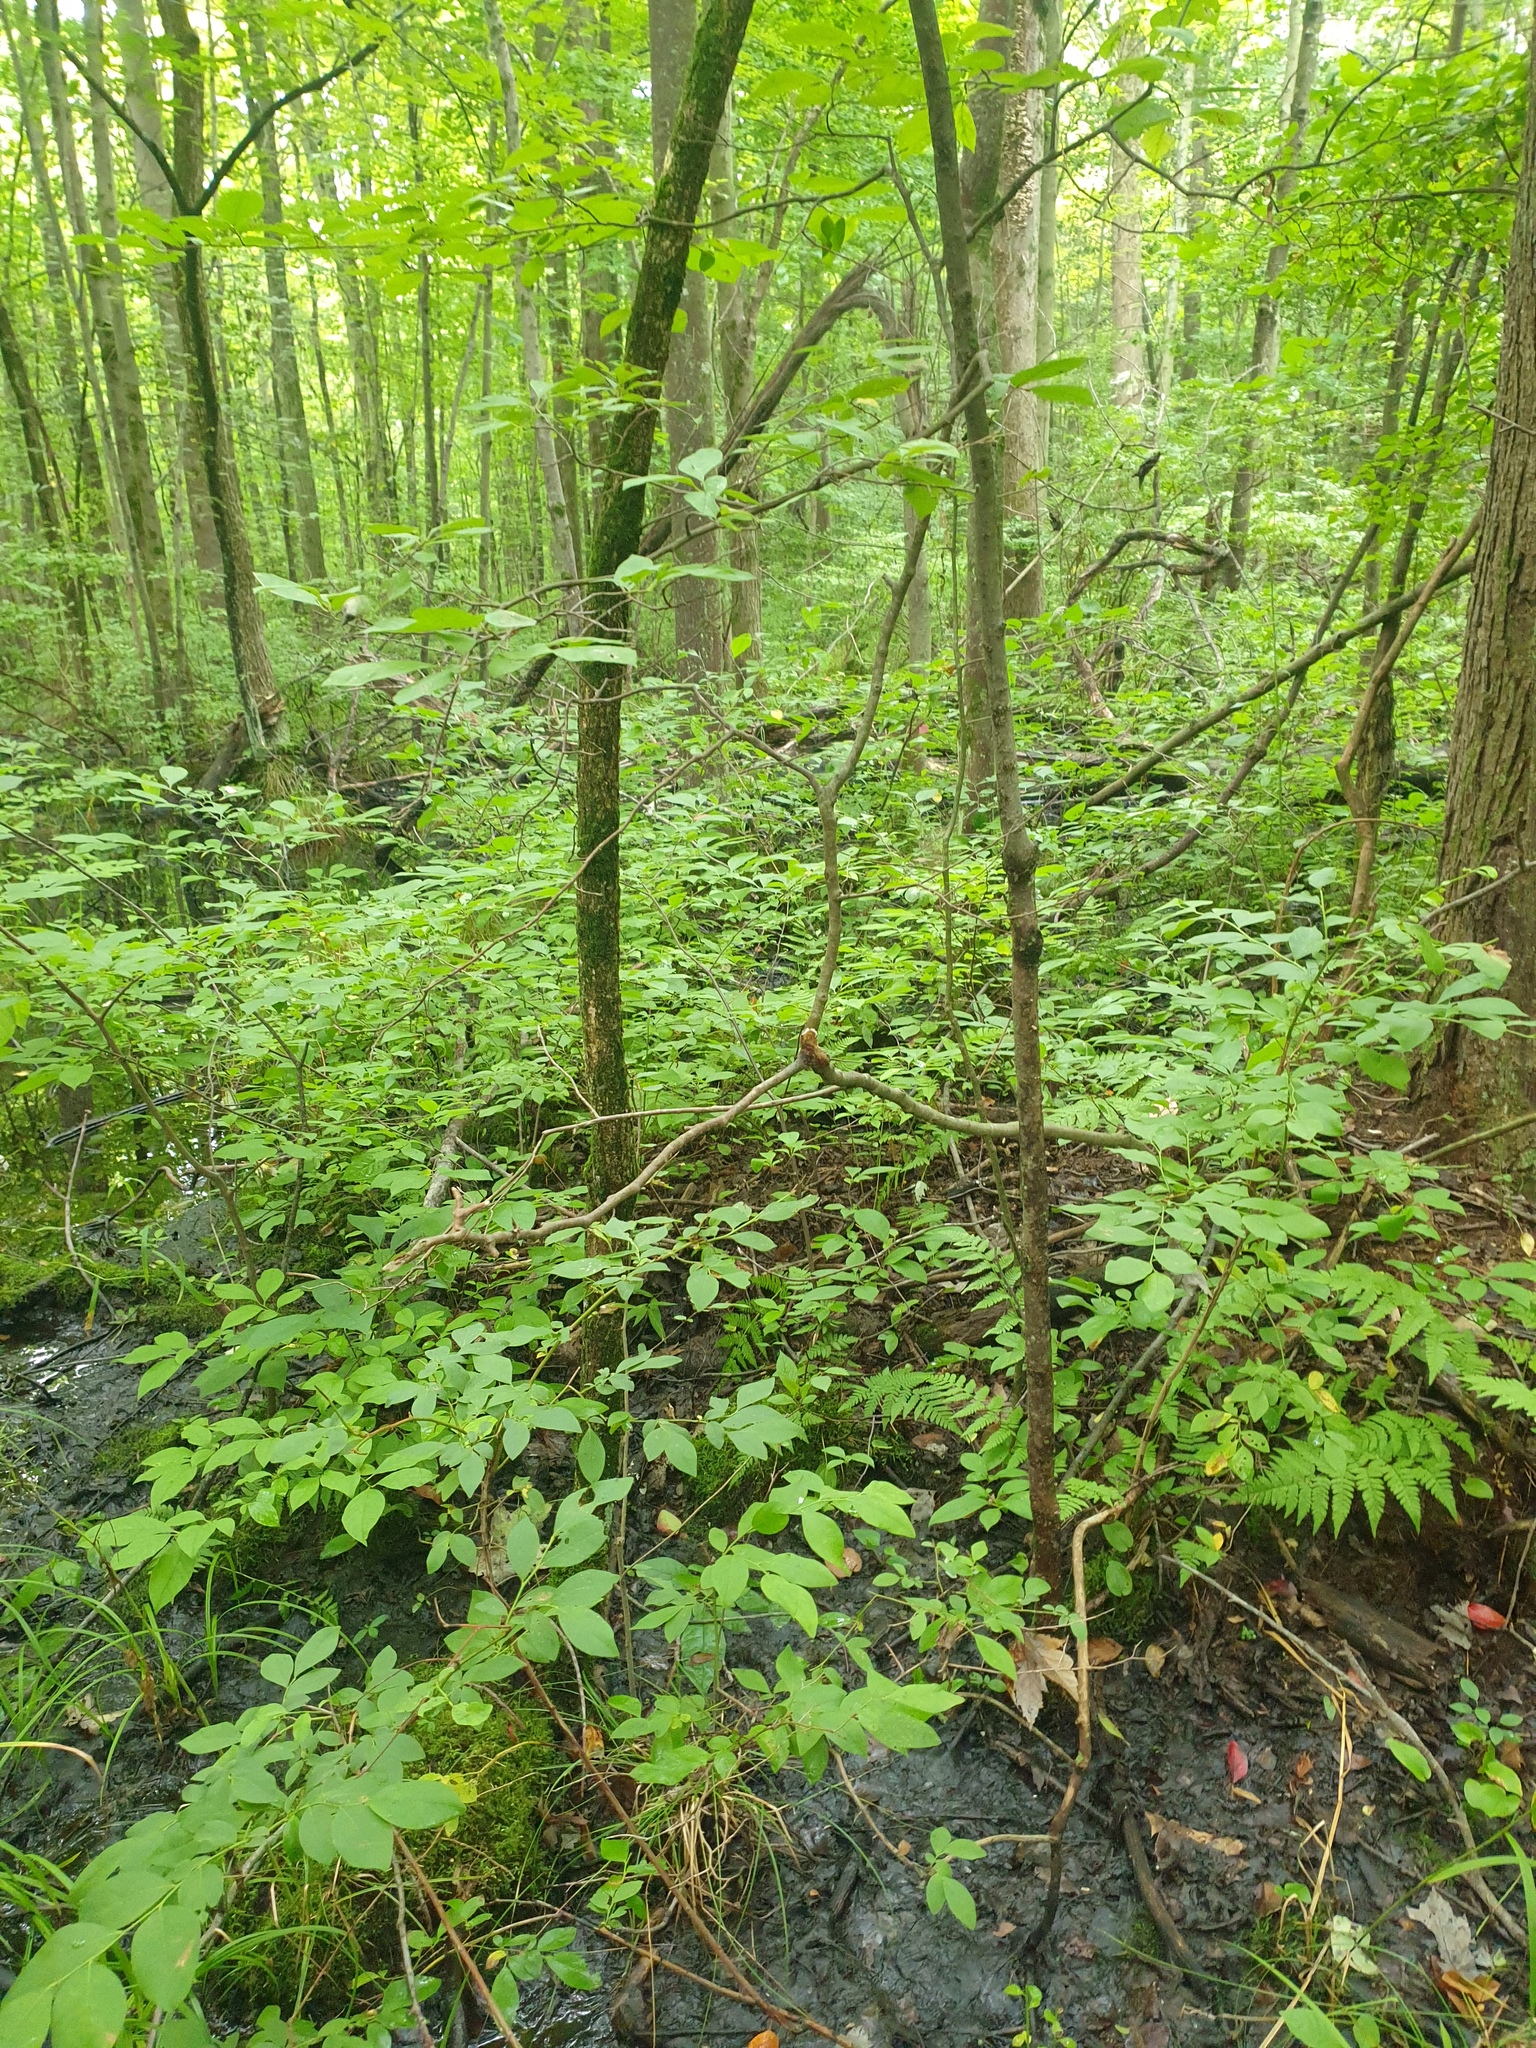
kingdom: Plantae
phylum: Tracheophyta
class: Magnoliopsida
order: Laurales
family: Lauraceae
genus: Lindera
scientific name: Lindera benzoin
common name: Spicebush
